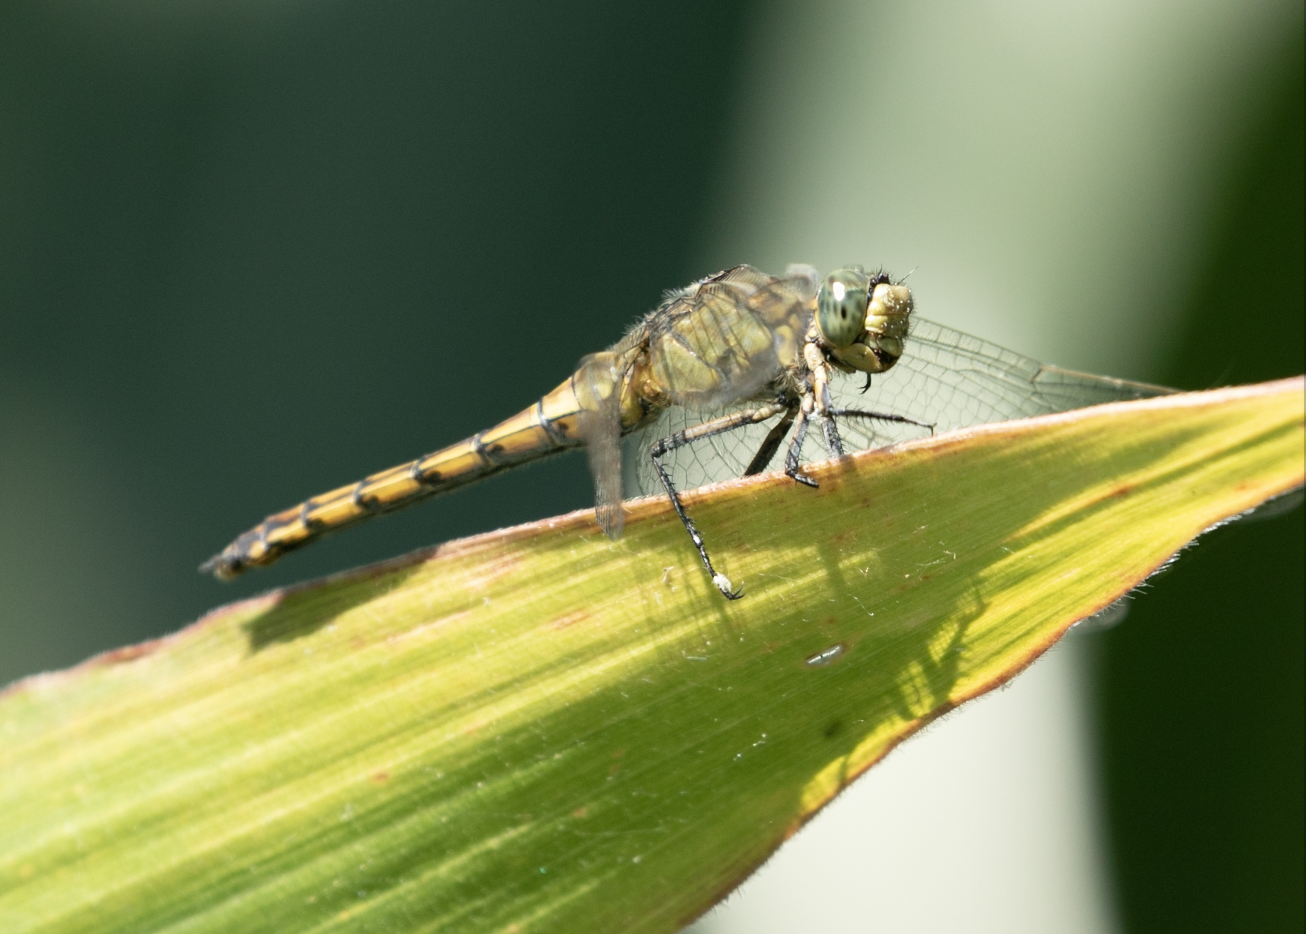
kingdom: Animalia
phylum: Arthropoda
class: Insecta
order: Odonata
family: Libellulidae
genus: Orthetrum
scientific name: Orthetrum cancellatum
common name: Black-tailed skimmer
